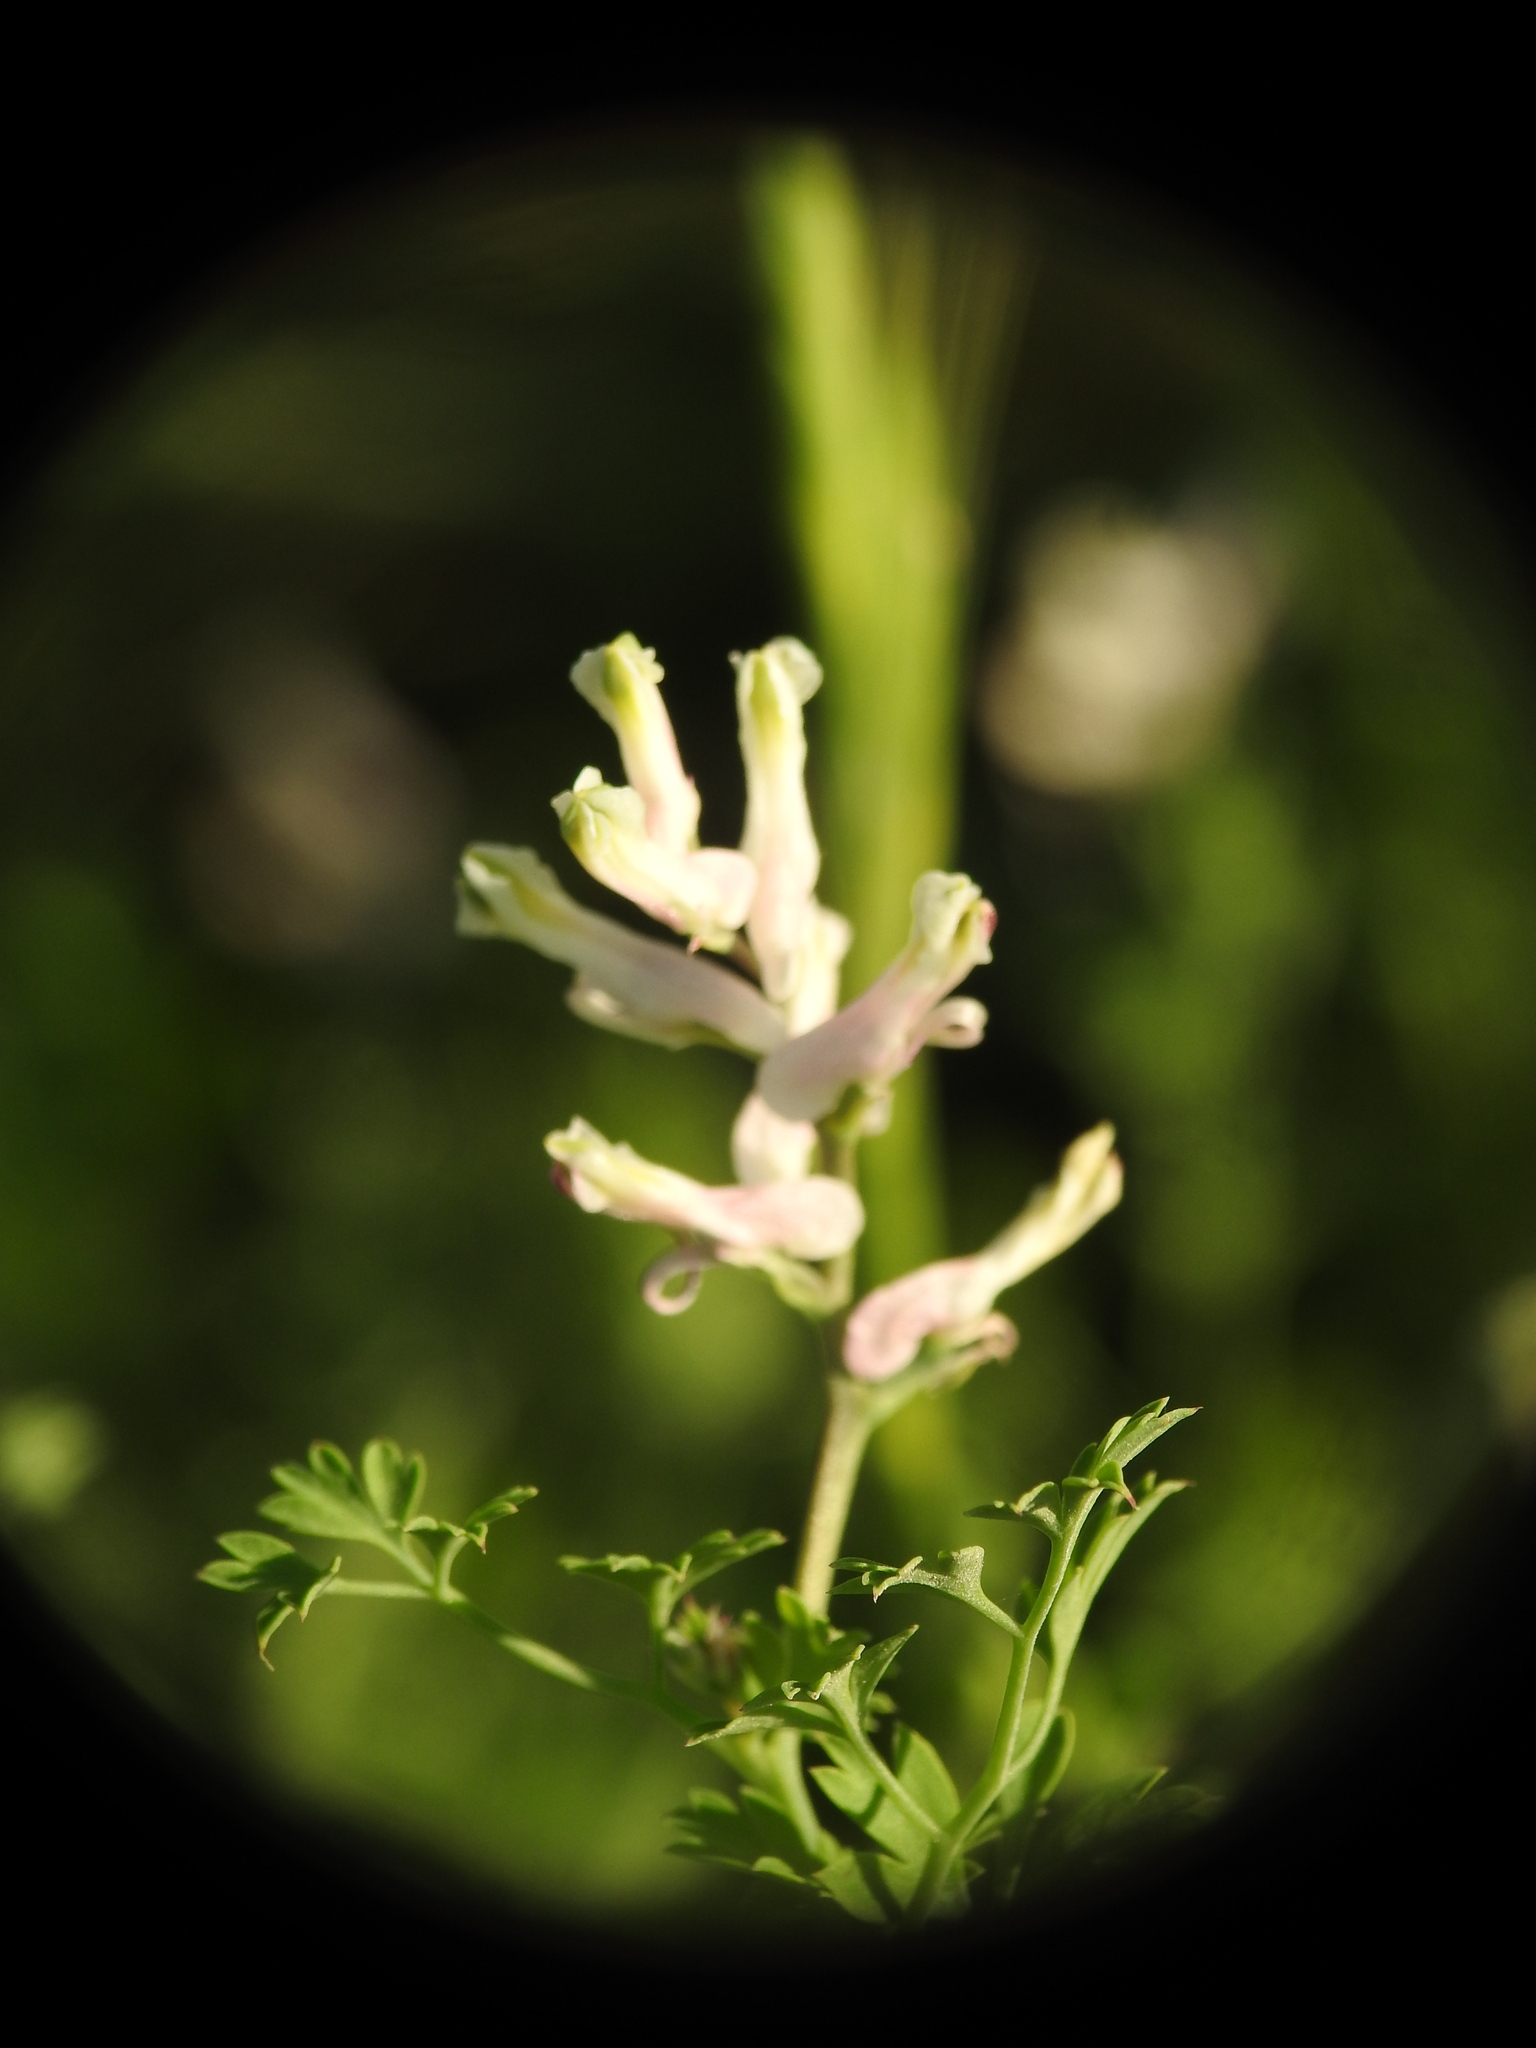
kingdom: Plantae
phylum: Tracheophyta
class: Magnoliopsida
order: Ranunculales
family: Papaveraceae
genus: Fumaria
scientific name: Fumaria macrocarpa
